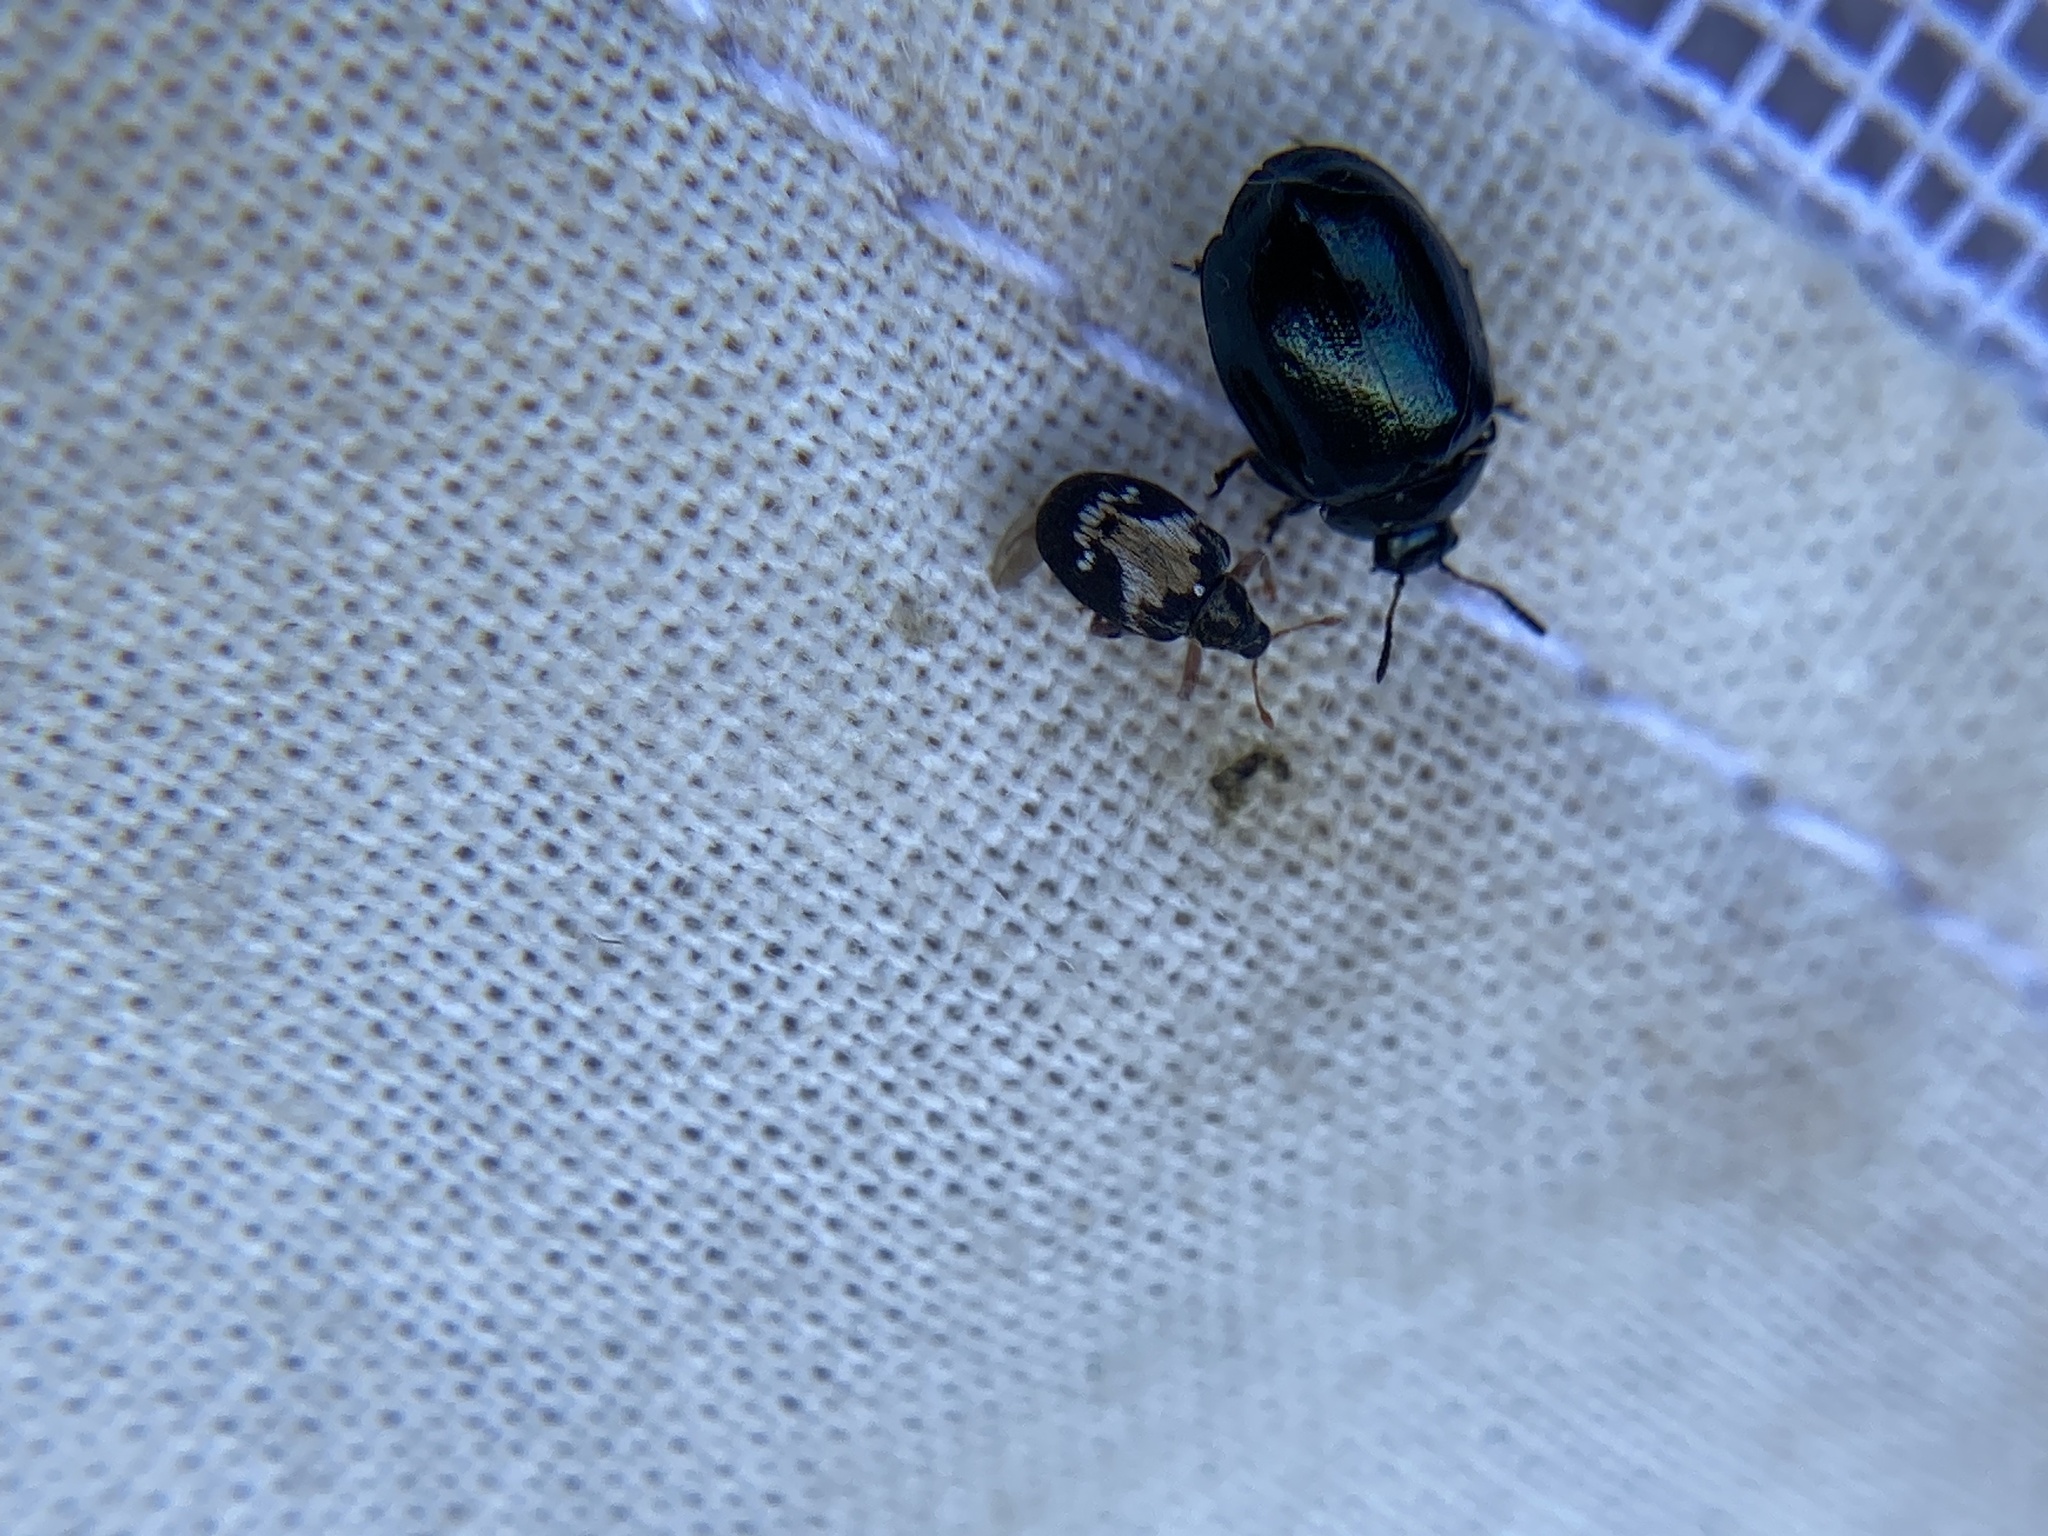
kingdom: Animalia
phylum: Arthropoda
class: Insecta
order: Coleoptera
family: Curculionidae
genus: Tachyerges
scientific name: Tachyerges ephippiatus
